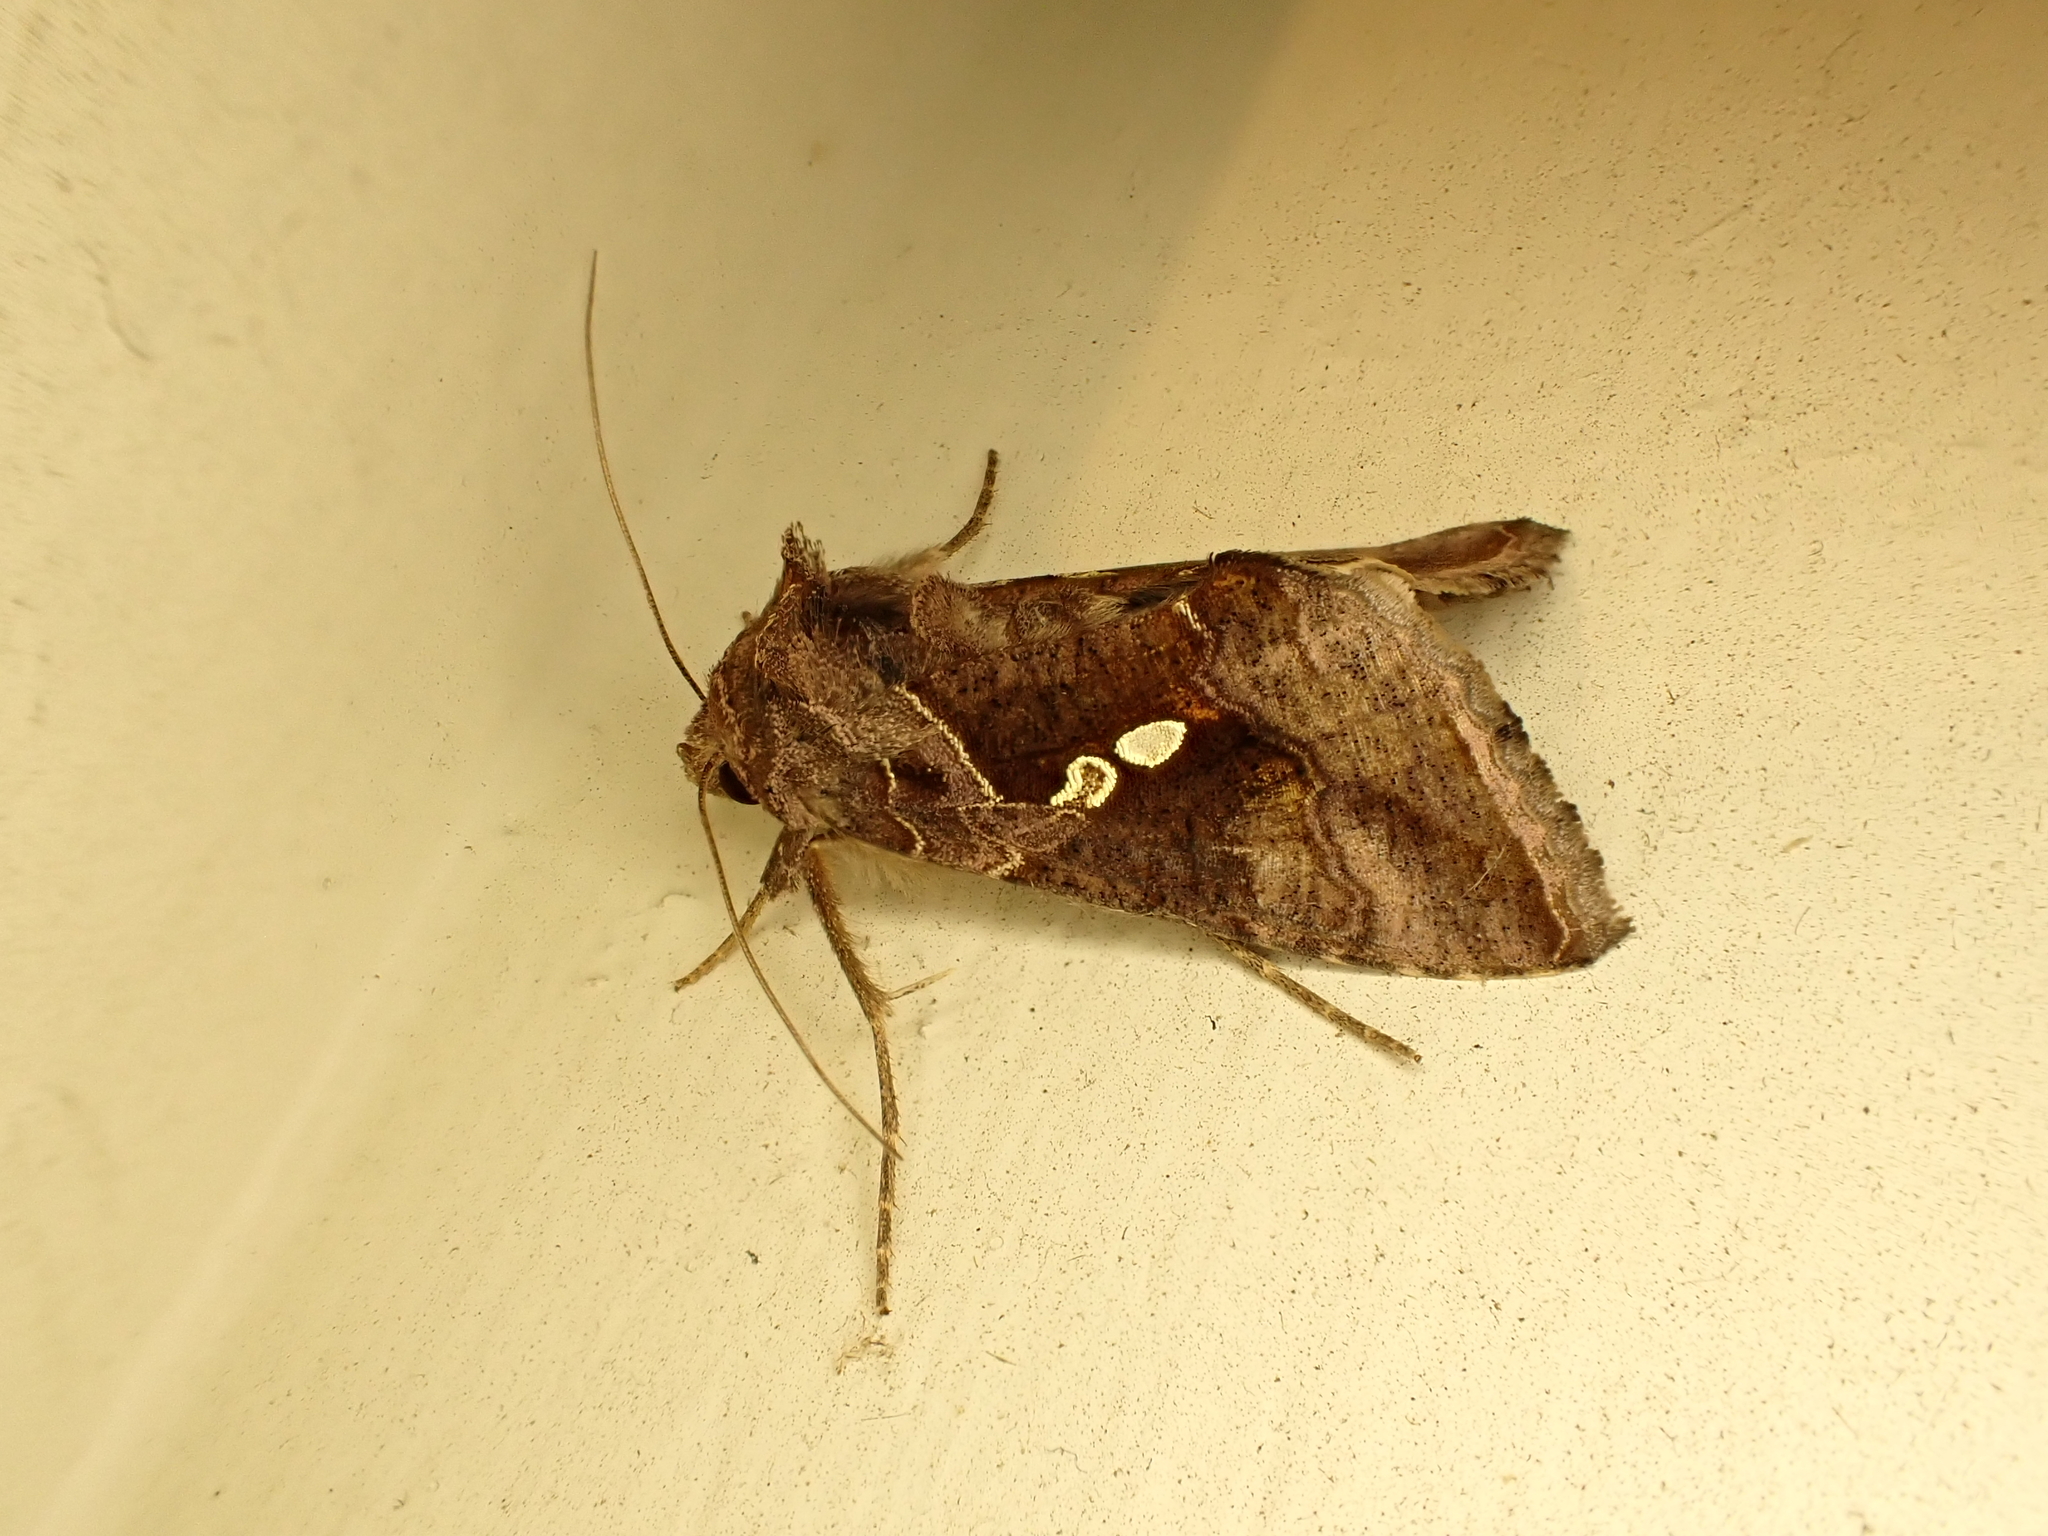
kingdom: Animalia
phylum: Arthropoda
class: Insecta
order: Lepidoptera
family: Noctuidae
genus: Chrysodeixis
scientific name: Chrysodeixis eriosoma
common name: Green garden looper
